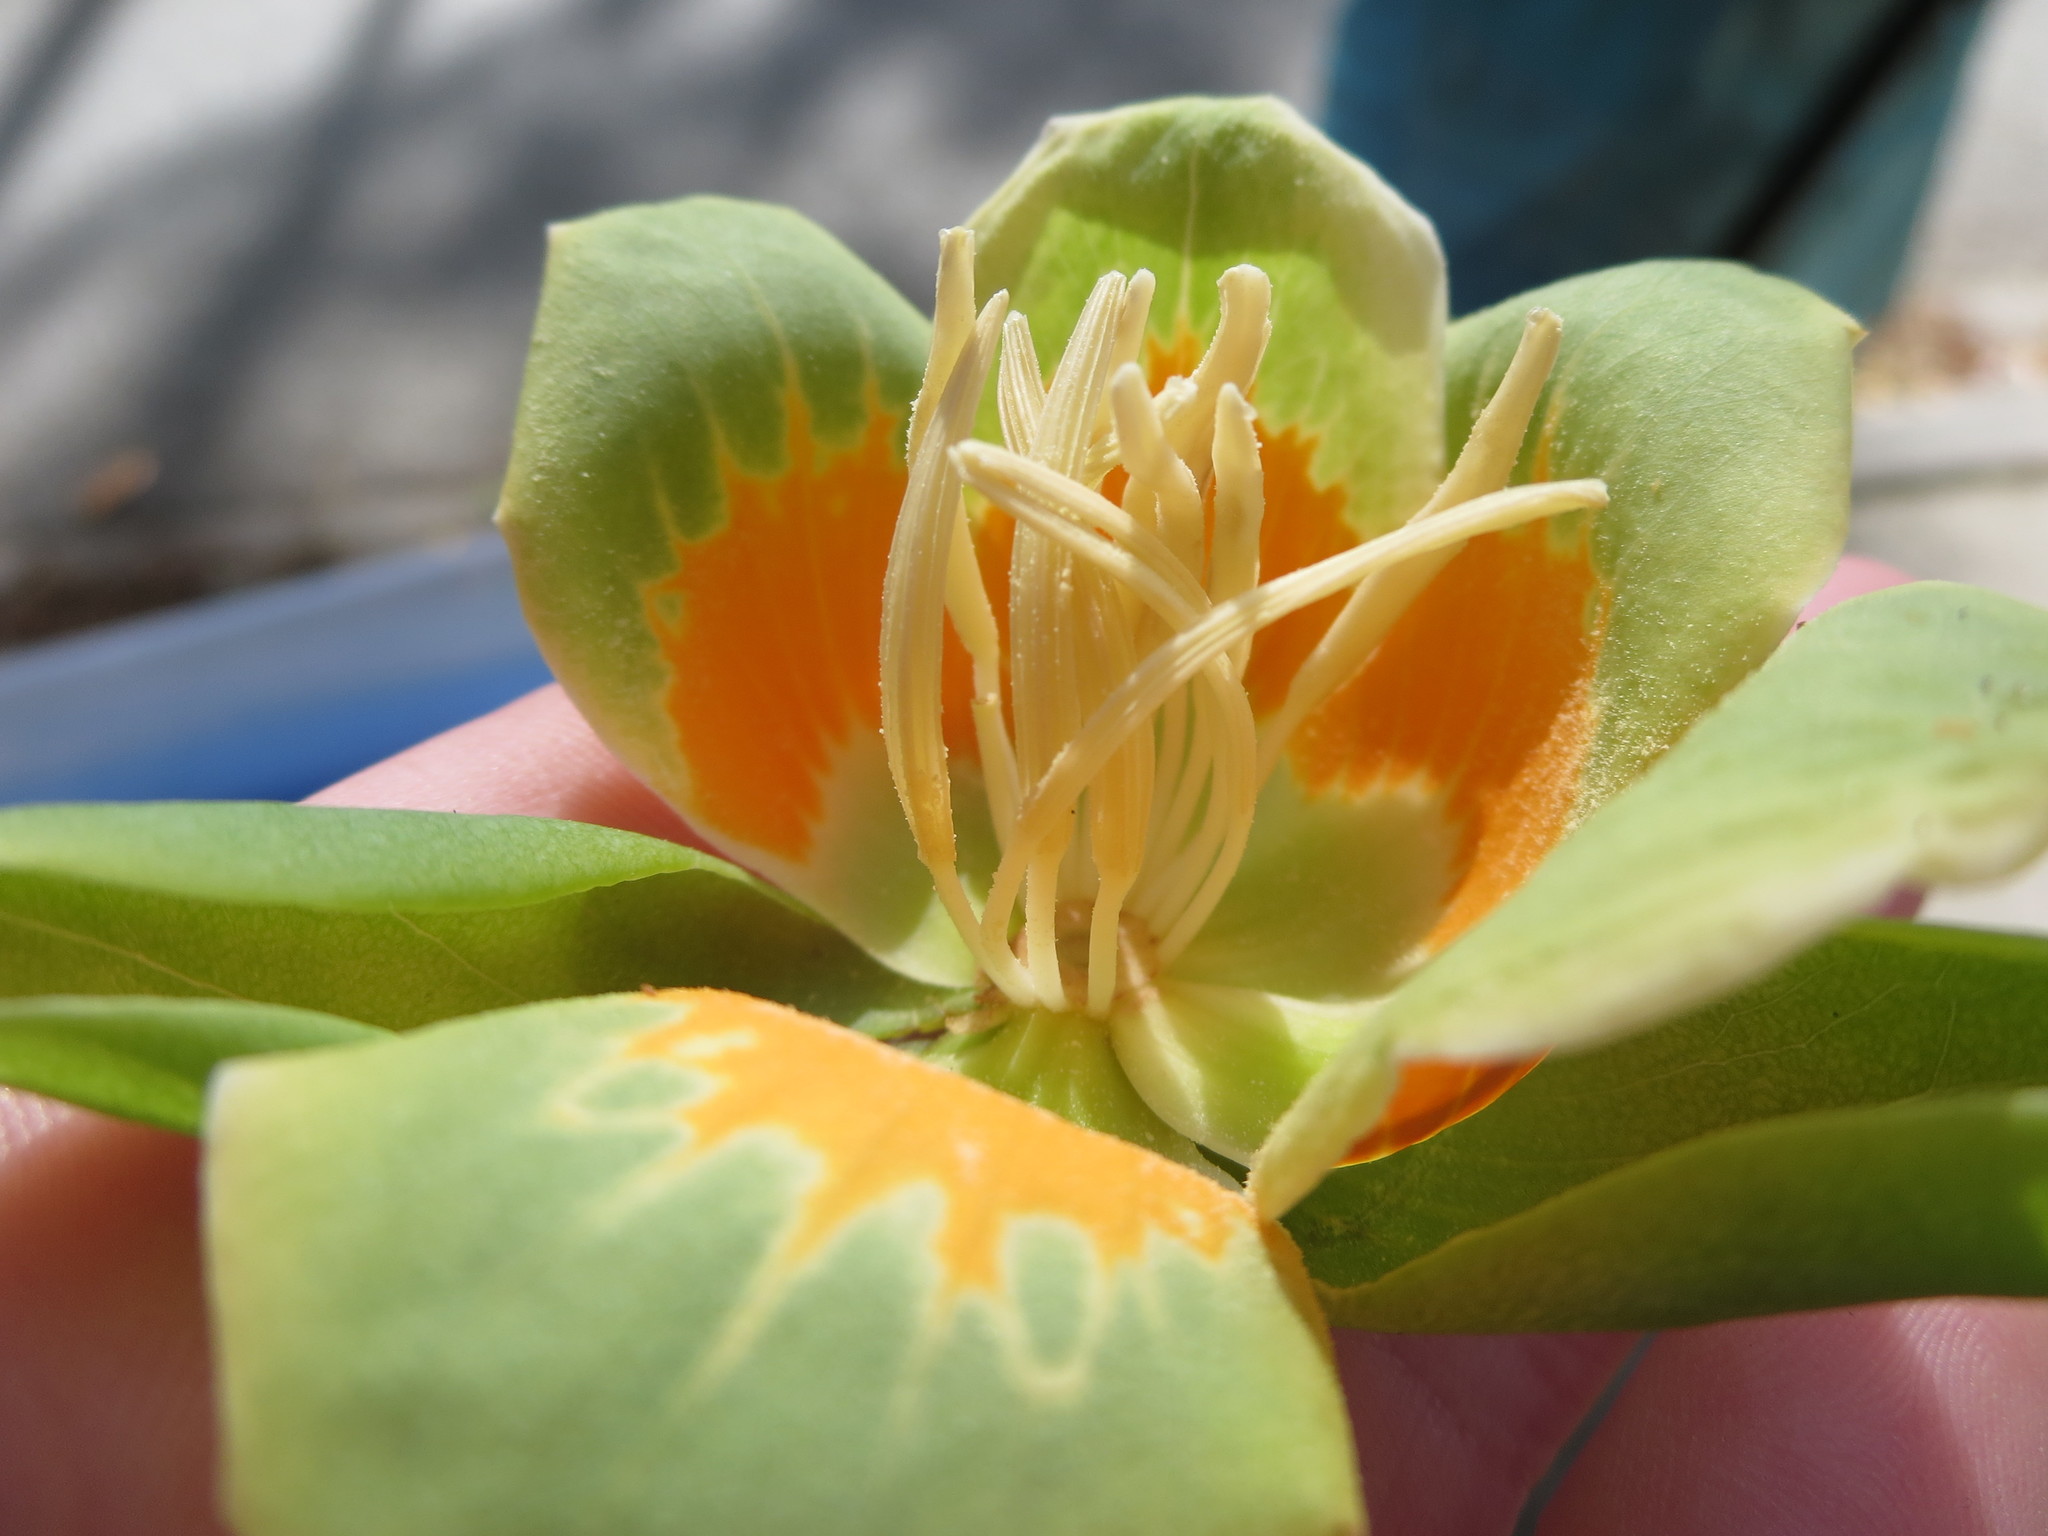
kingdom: Plantae
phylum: Tracheophyta
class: Magnoliopsida
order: Magnoliales
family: Magnoliaceae
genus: Liriodendron
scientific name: Liriodendron tulipifera
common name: Tulip tree
